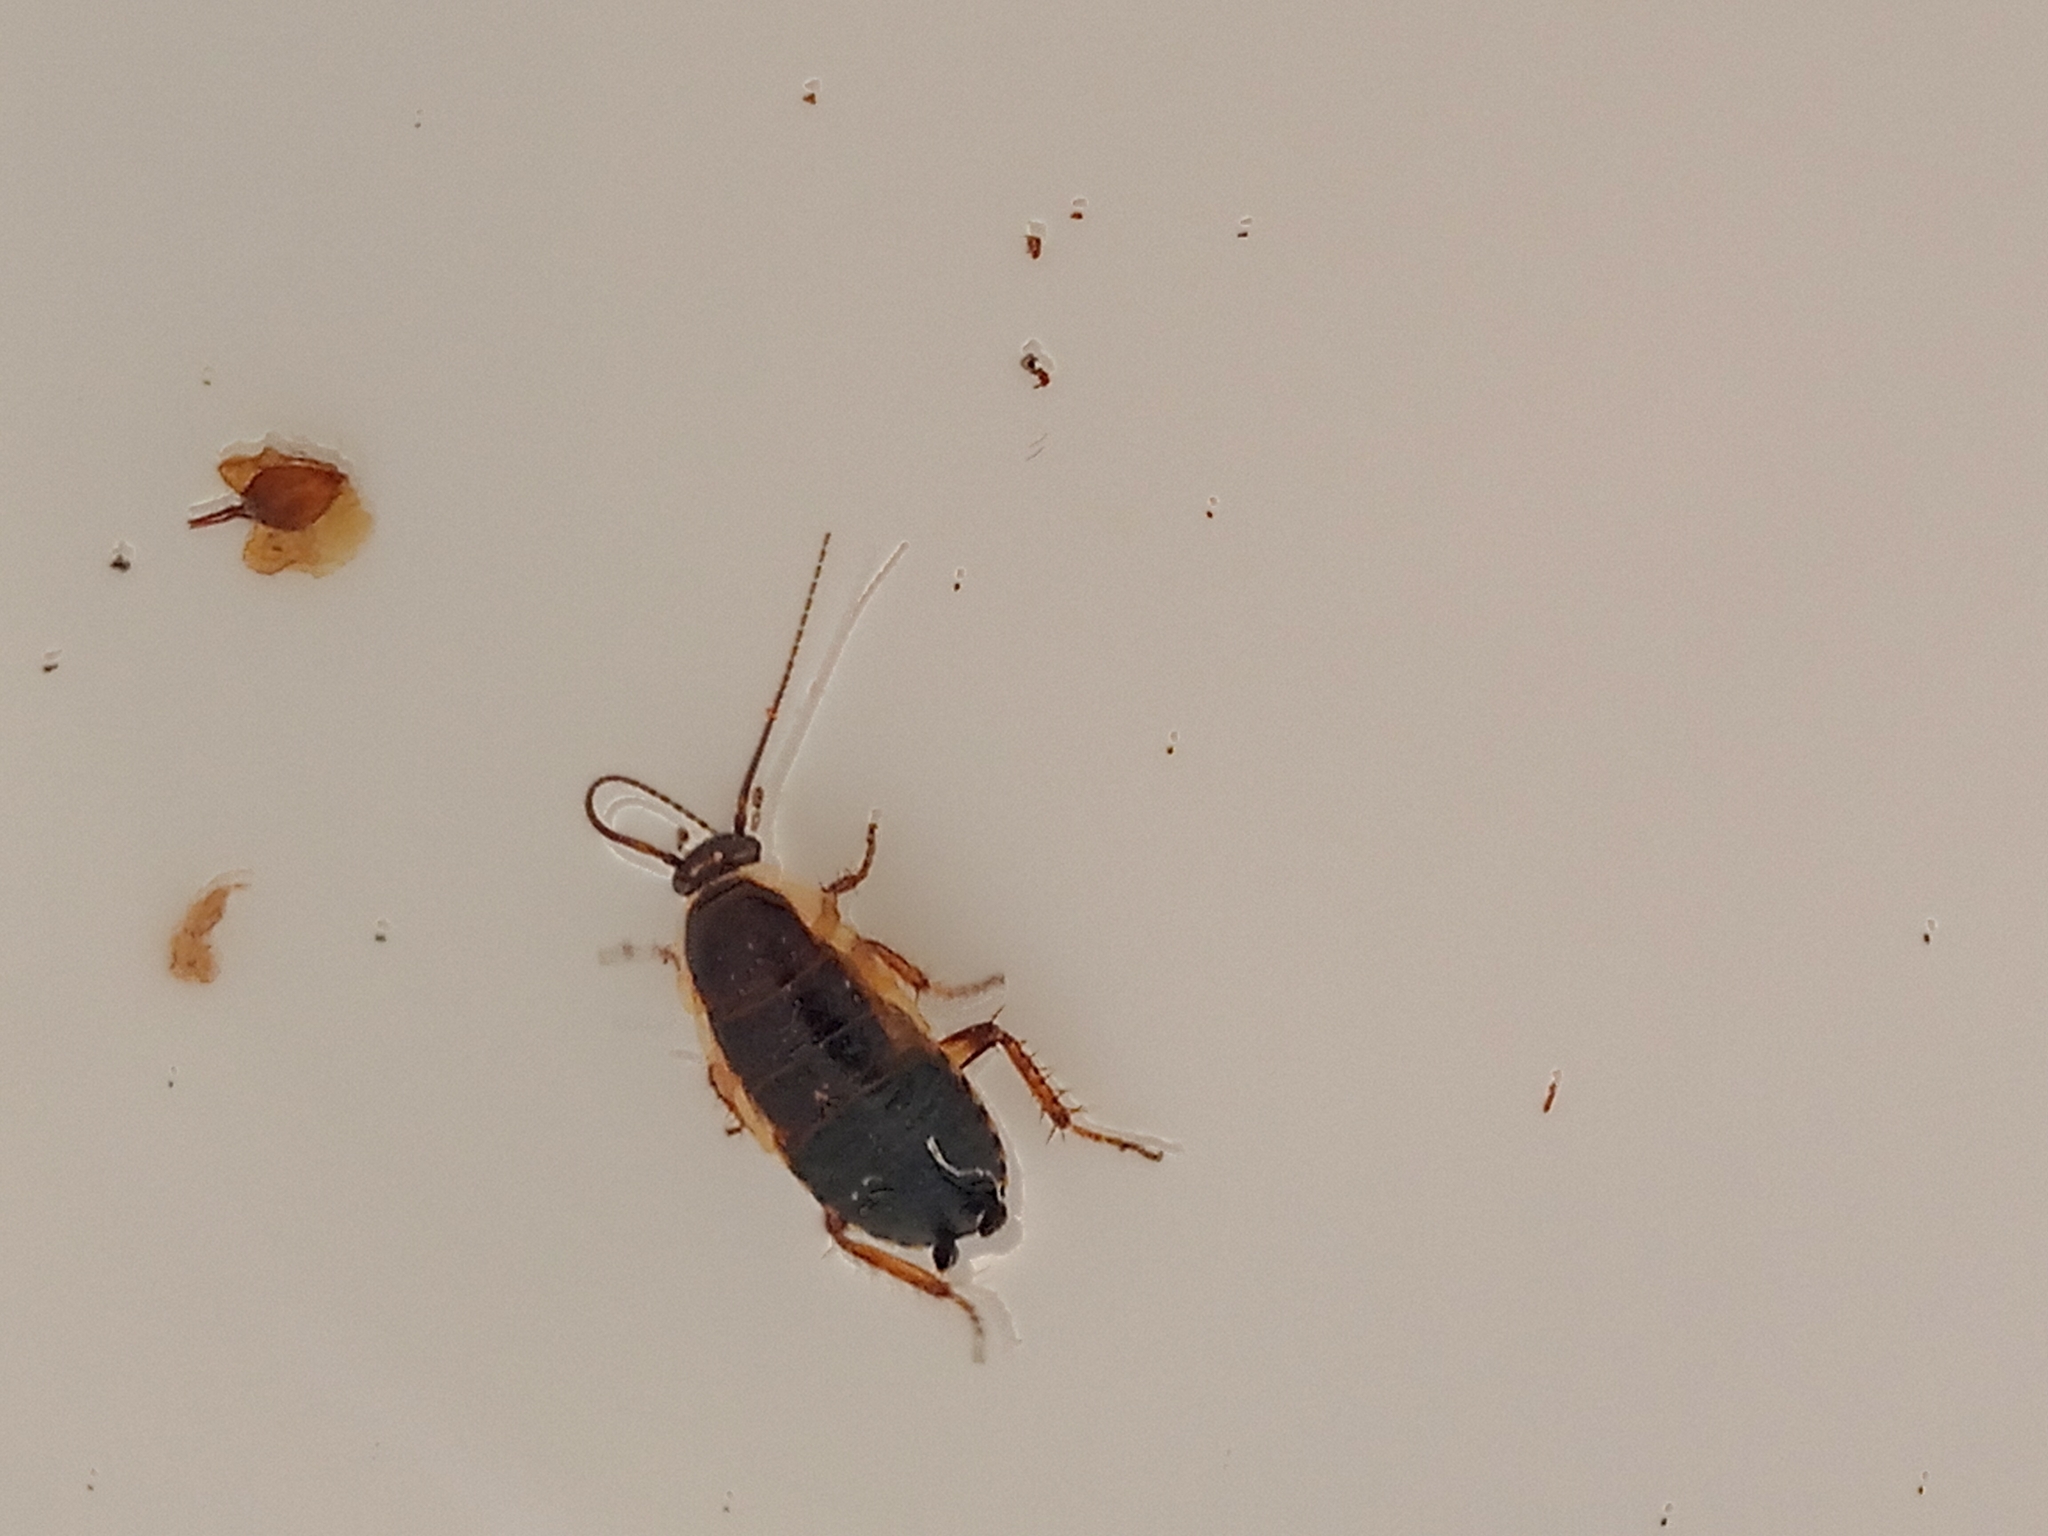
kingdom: Animalia
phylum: Arthropoda
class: Insecta
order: Blattodea
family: Ectobiidae
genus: Ectobius
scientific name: Ectobius sylvestris
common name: Forest cockroach
